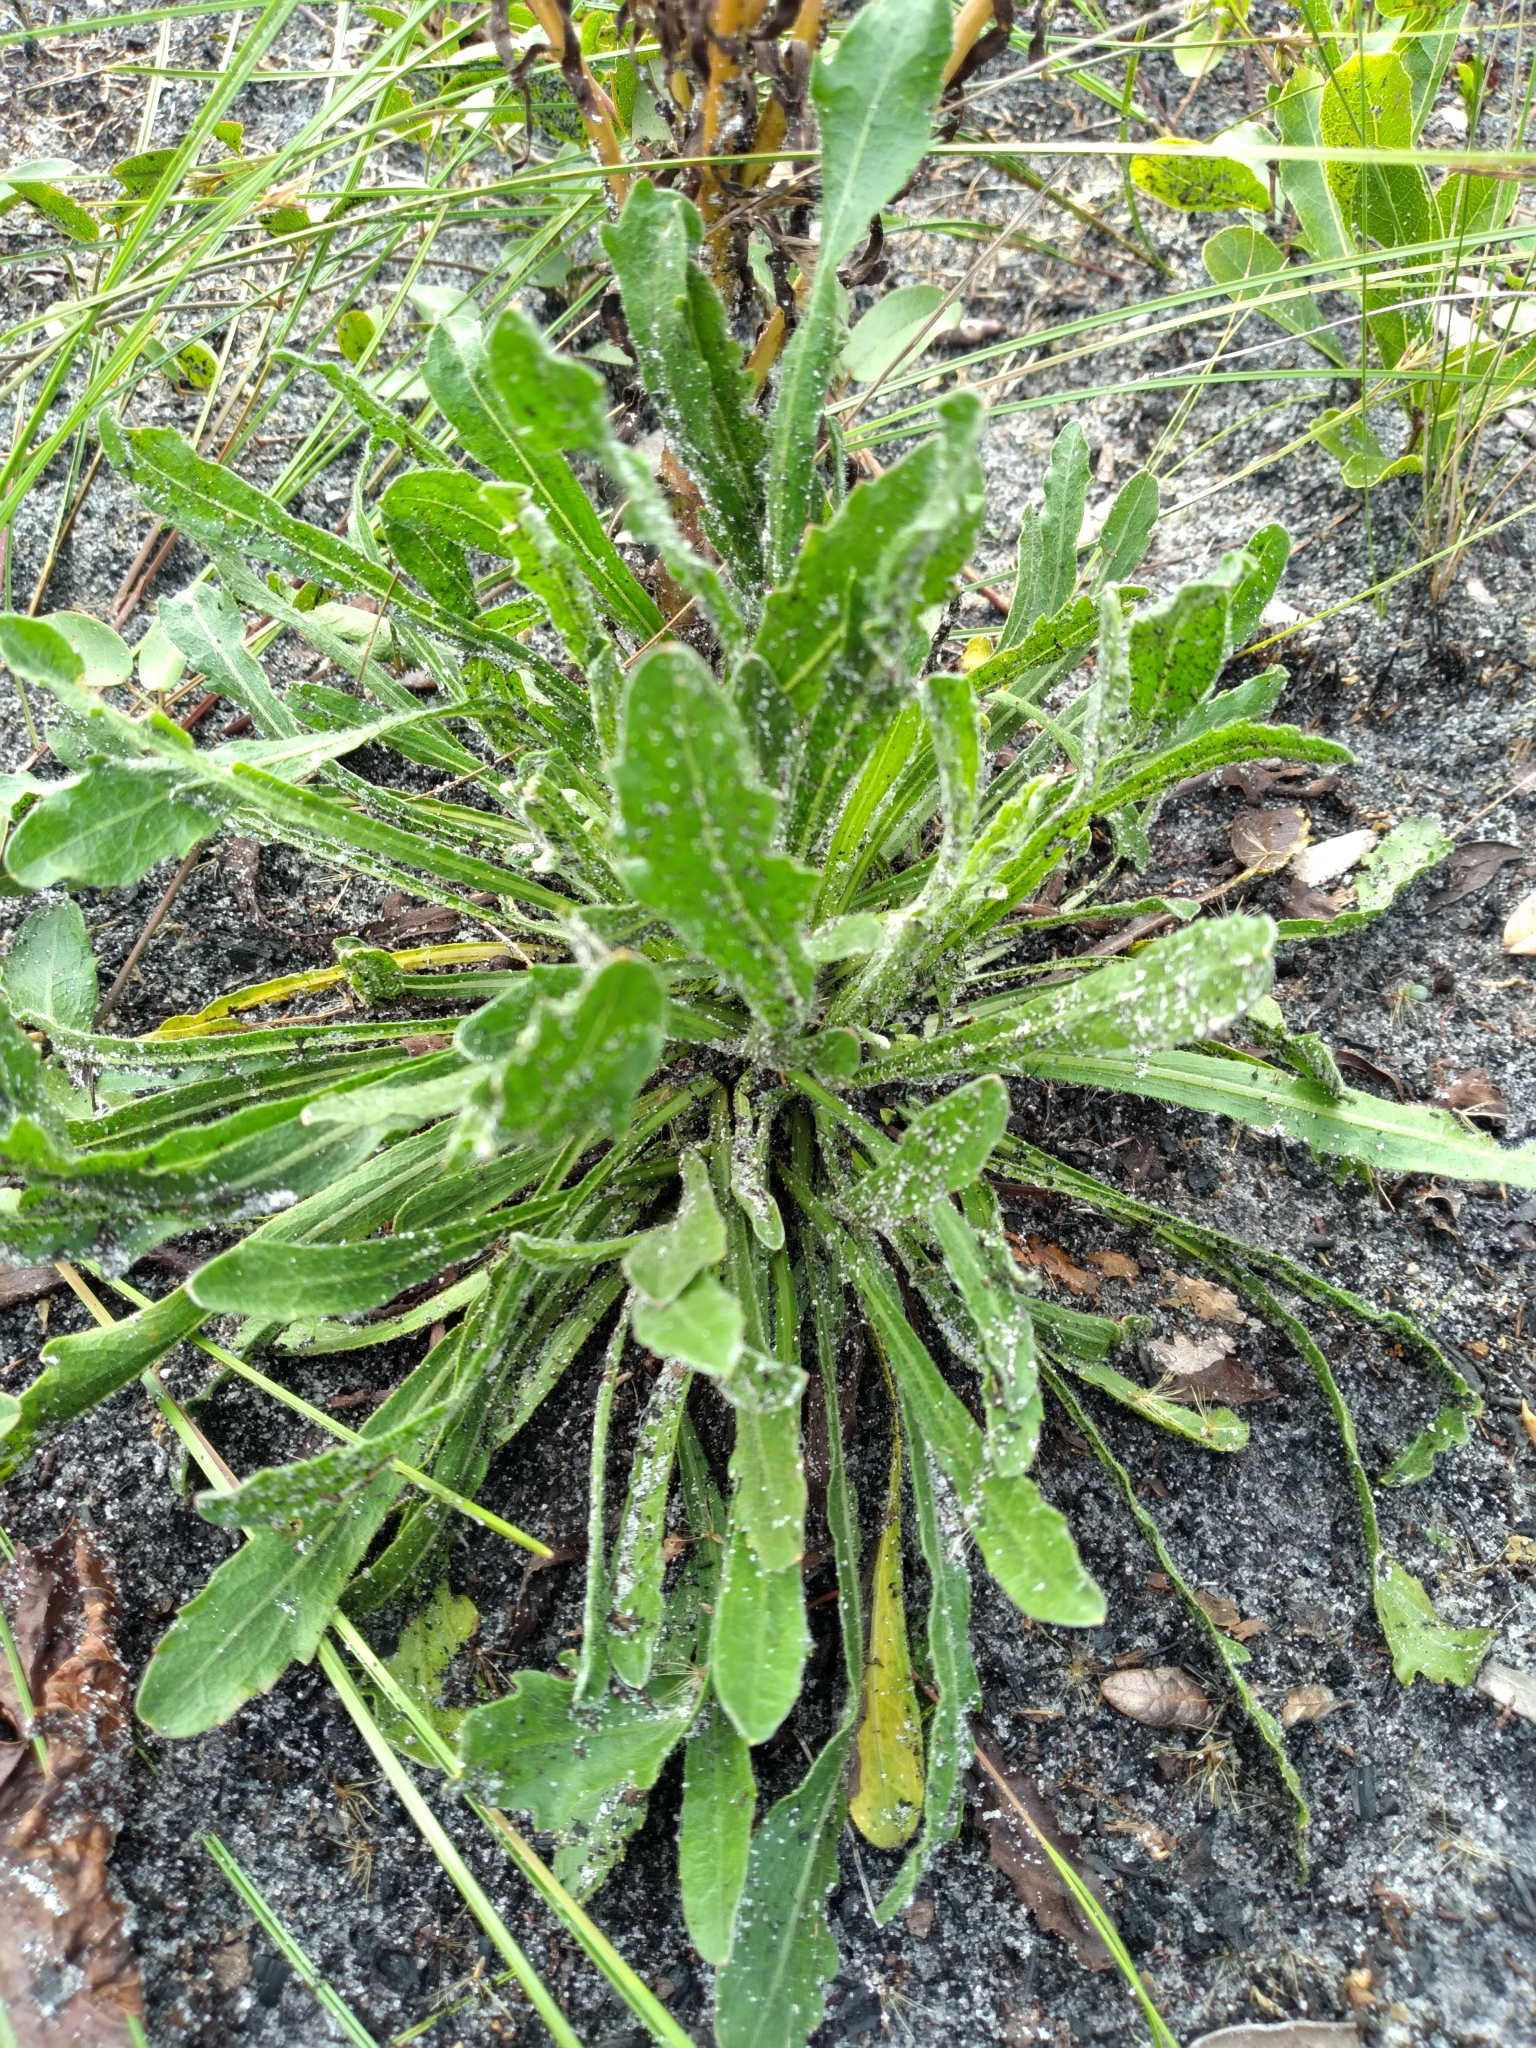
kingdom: Plantae
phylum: Tracheophyta
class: Magnoliopsida
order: Asterales
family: Asteraceae
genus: Chrysopsis
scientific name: Chrysopsis subulata
